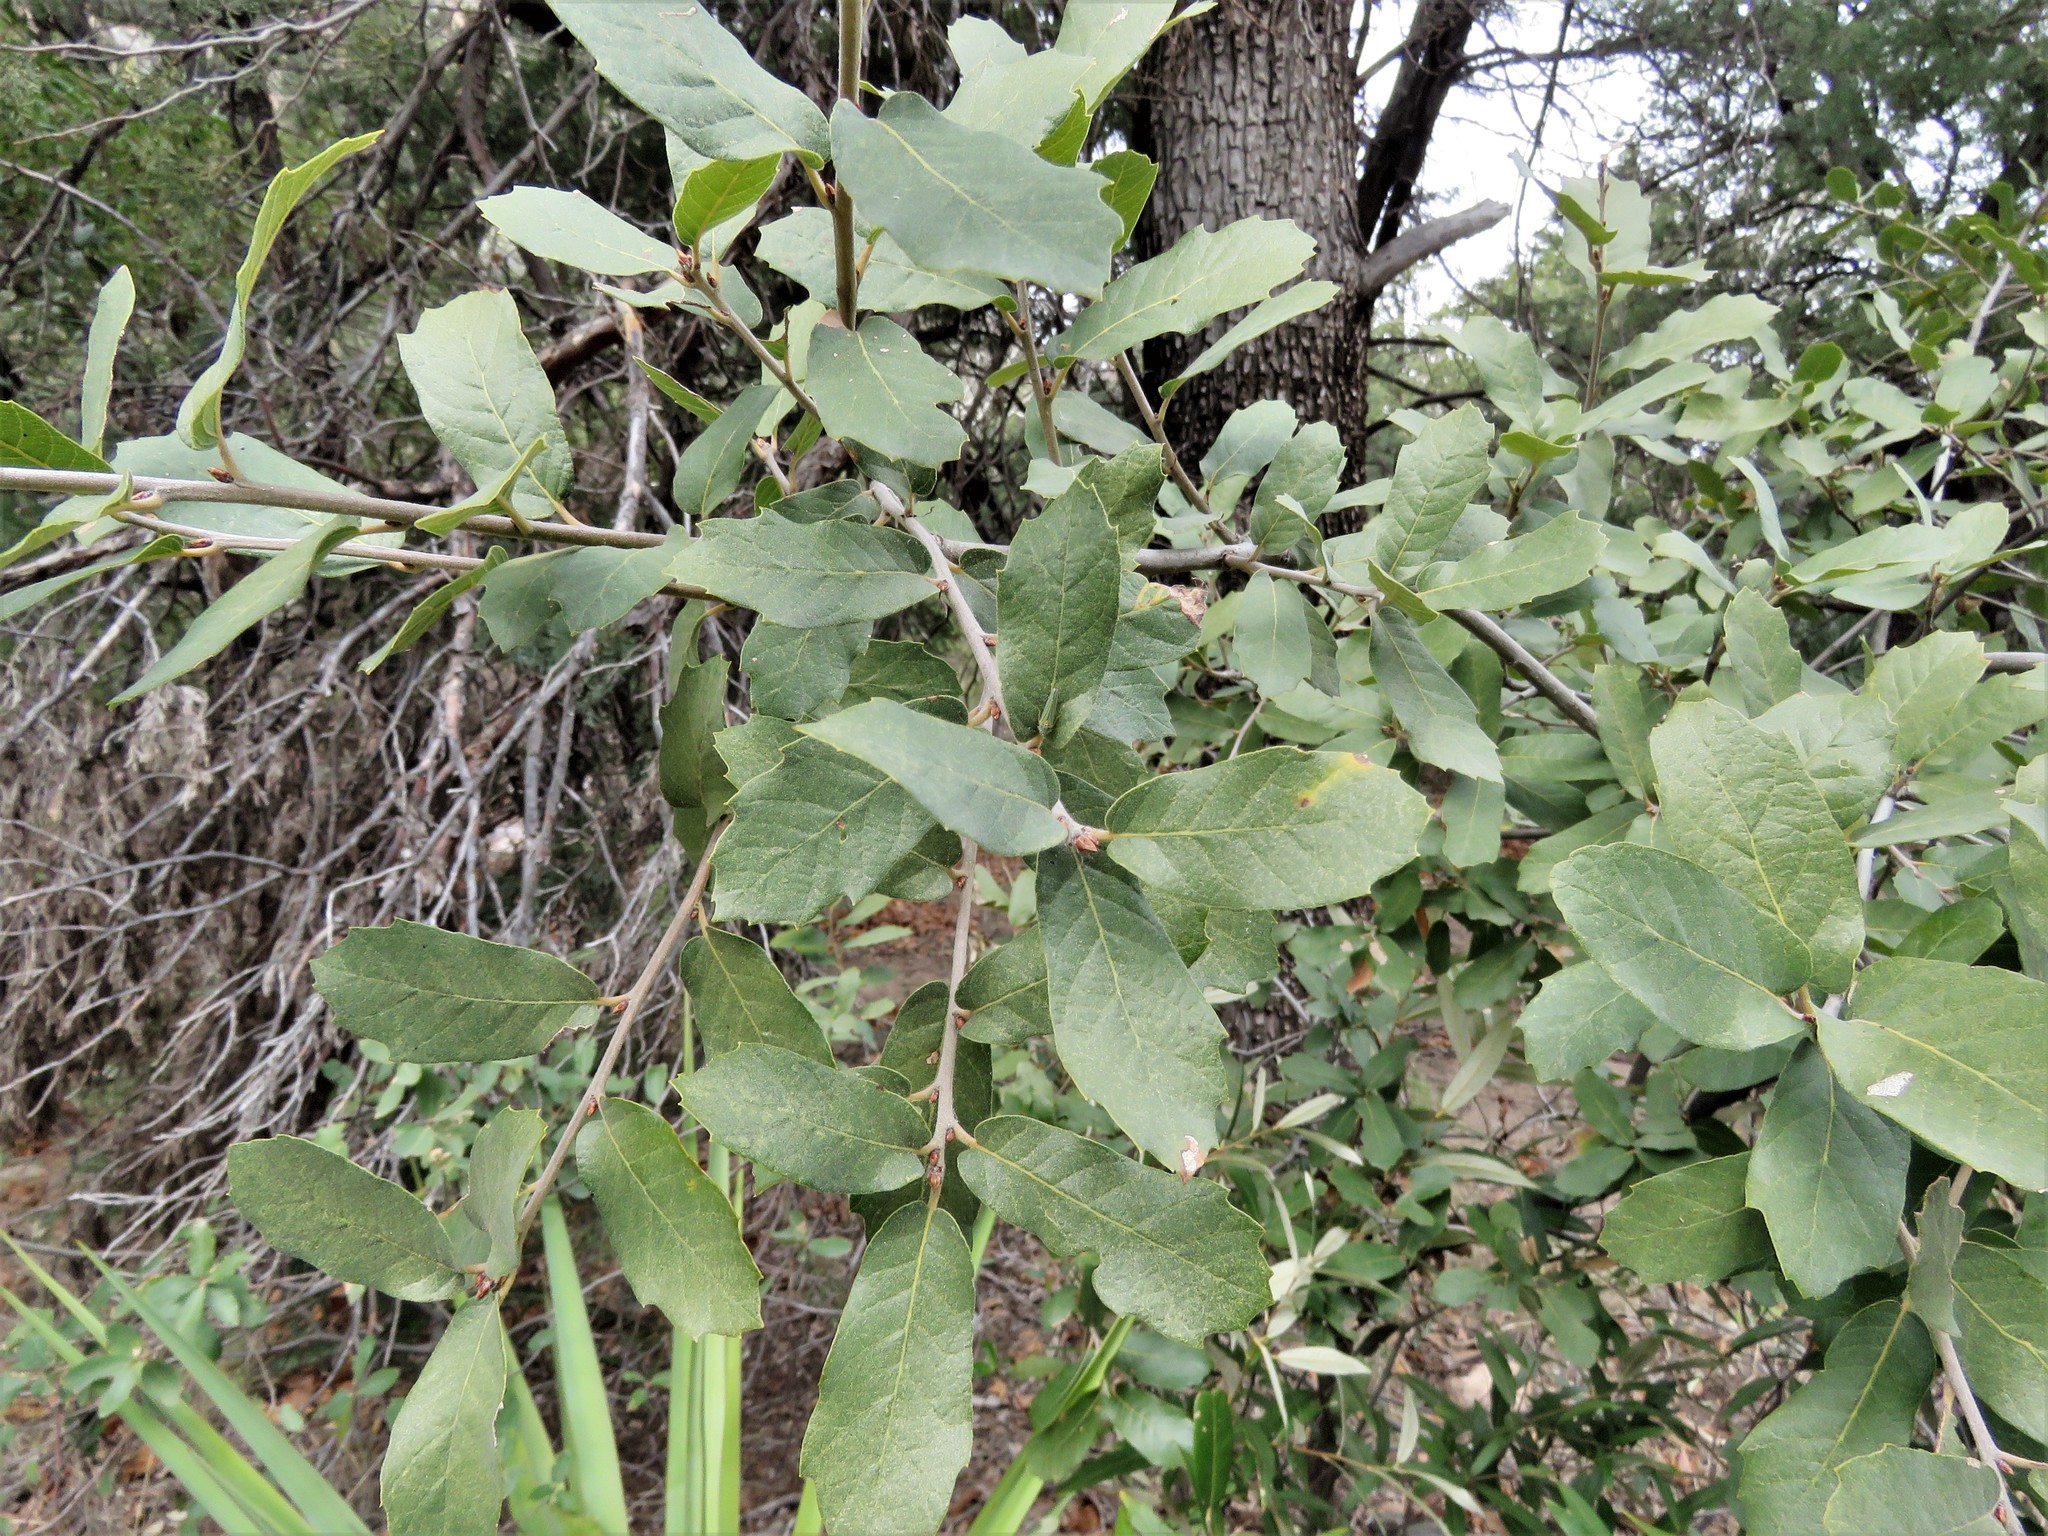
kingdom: Plantae
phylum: Tracheophyta
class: Magnoliopsida
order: Fagales
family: Fagaceae
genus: Quercus
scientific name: Quercus arizonica
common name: Arizona white oak
